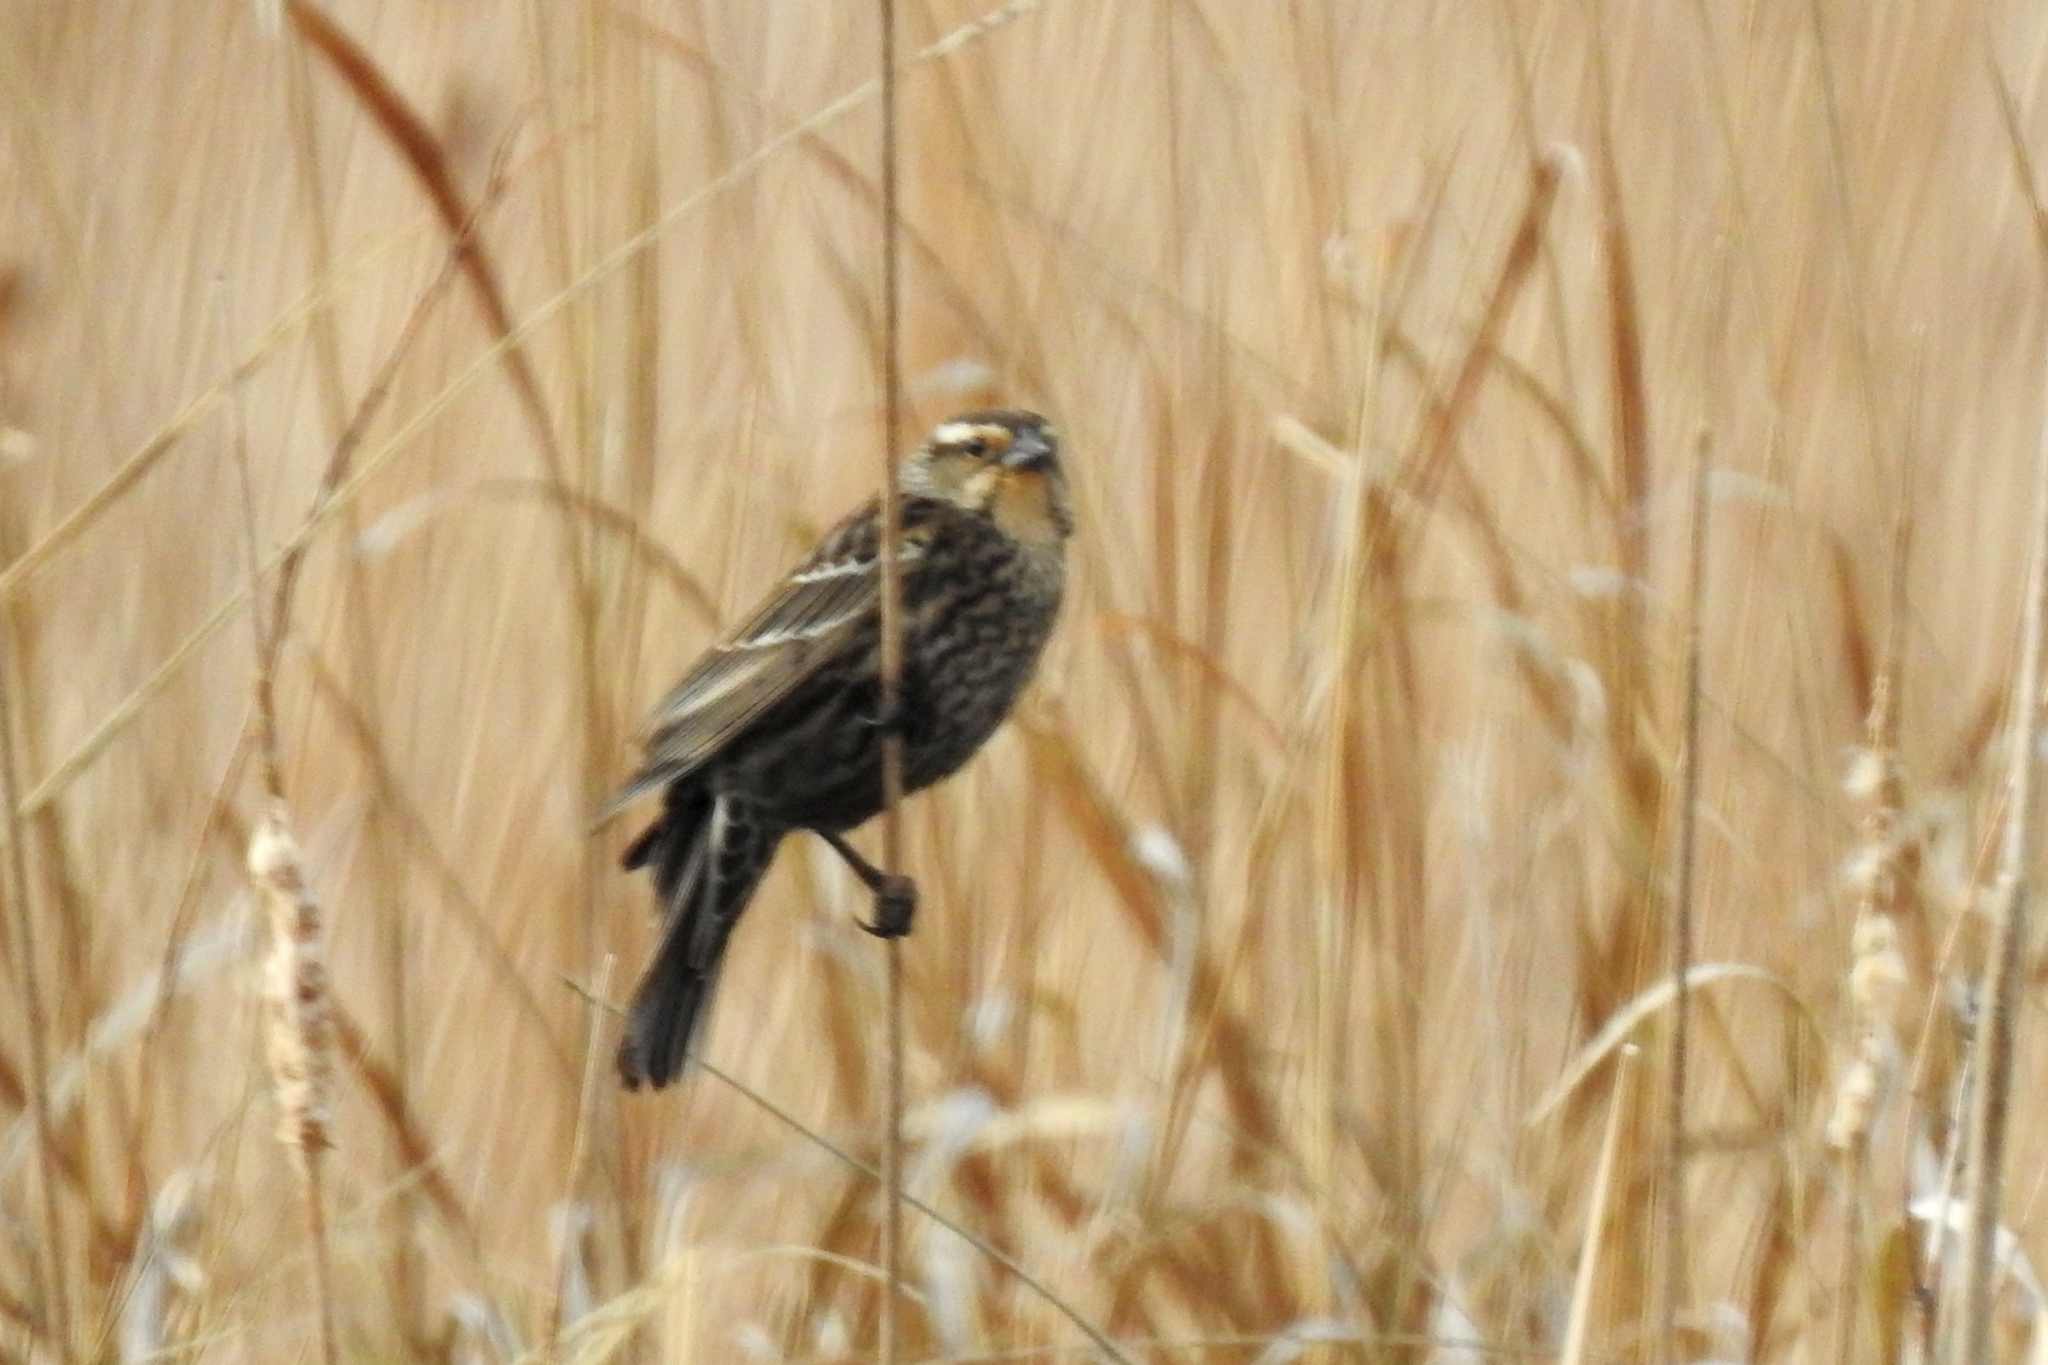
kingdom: Animalia
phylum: Chordata
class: Aves
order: Passeriformes
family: Icteridae
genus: Agelaius
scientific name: Agelaius phoeniceus
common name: Red-winged blackbird
